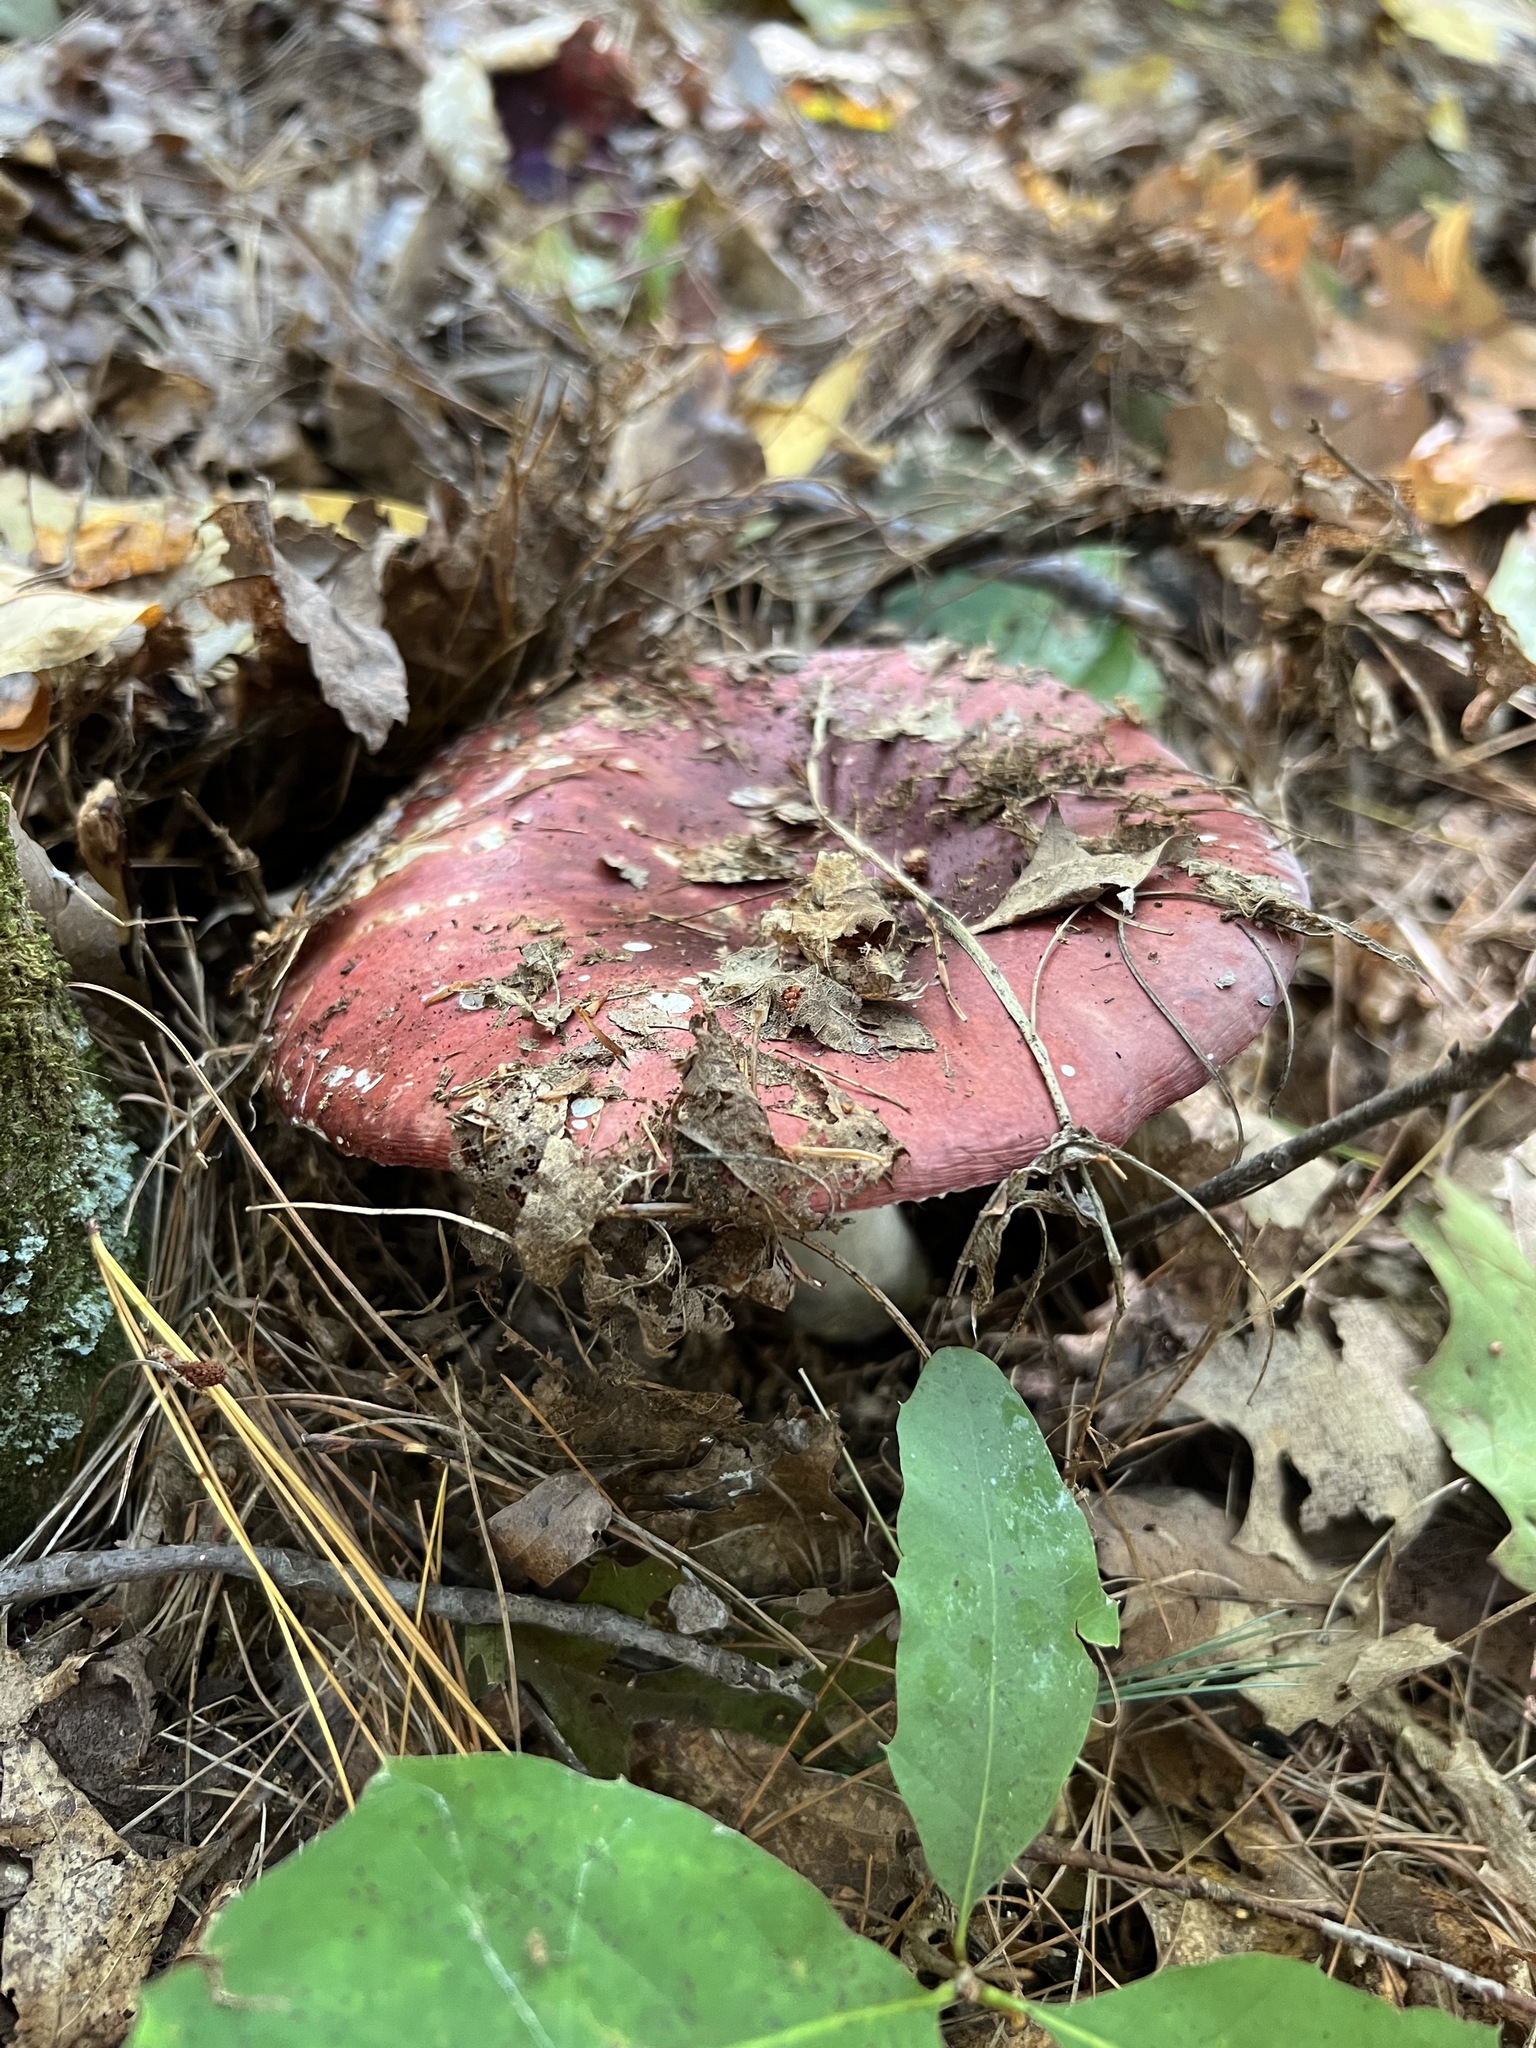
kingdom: Fungi
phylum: Basidiomycota
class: Agaricomycetes
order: Russulales
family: Russulaceae
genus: Russula
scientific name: Russula
